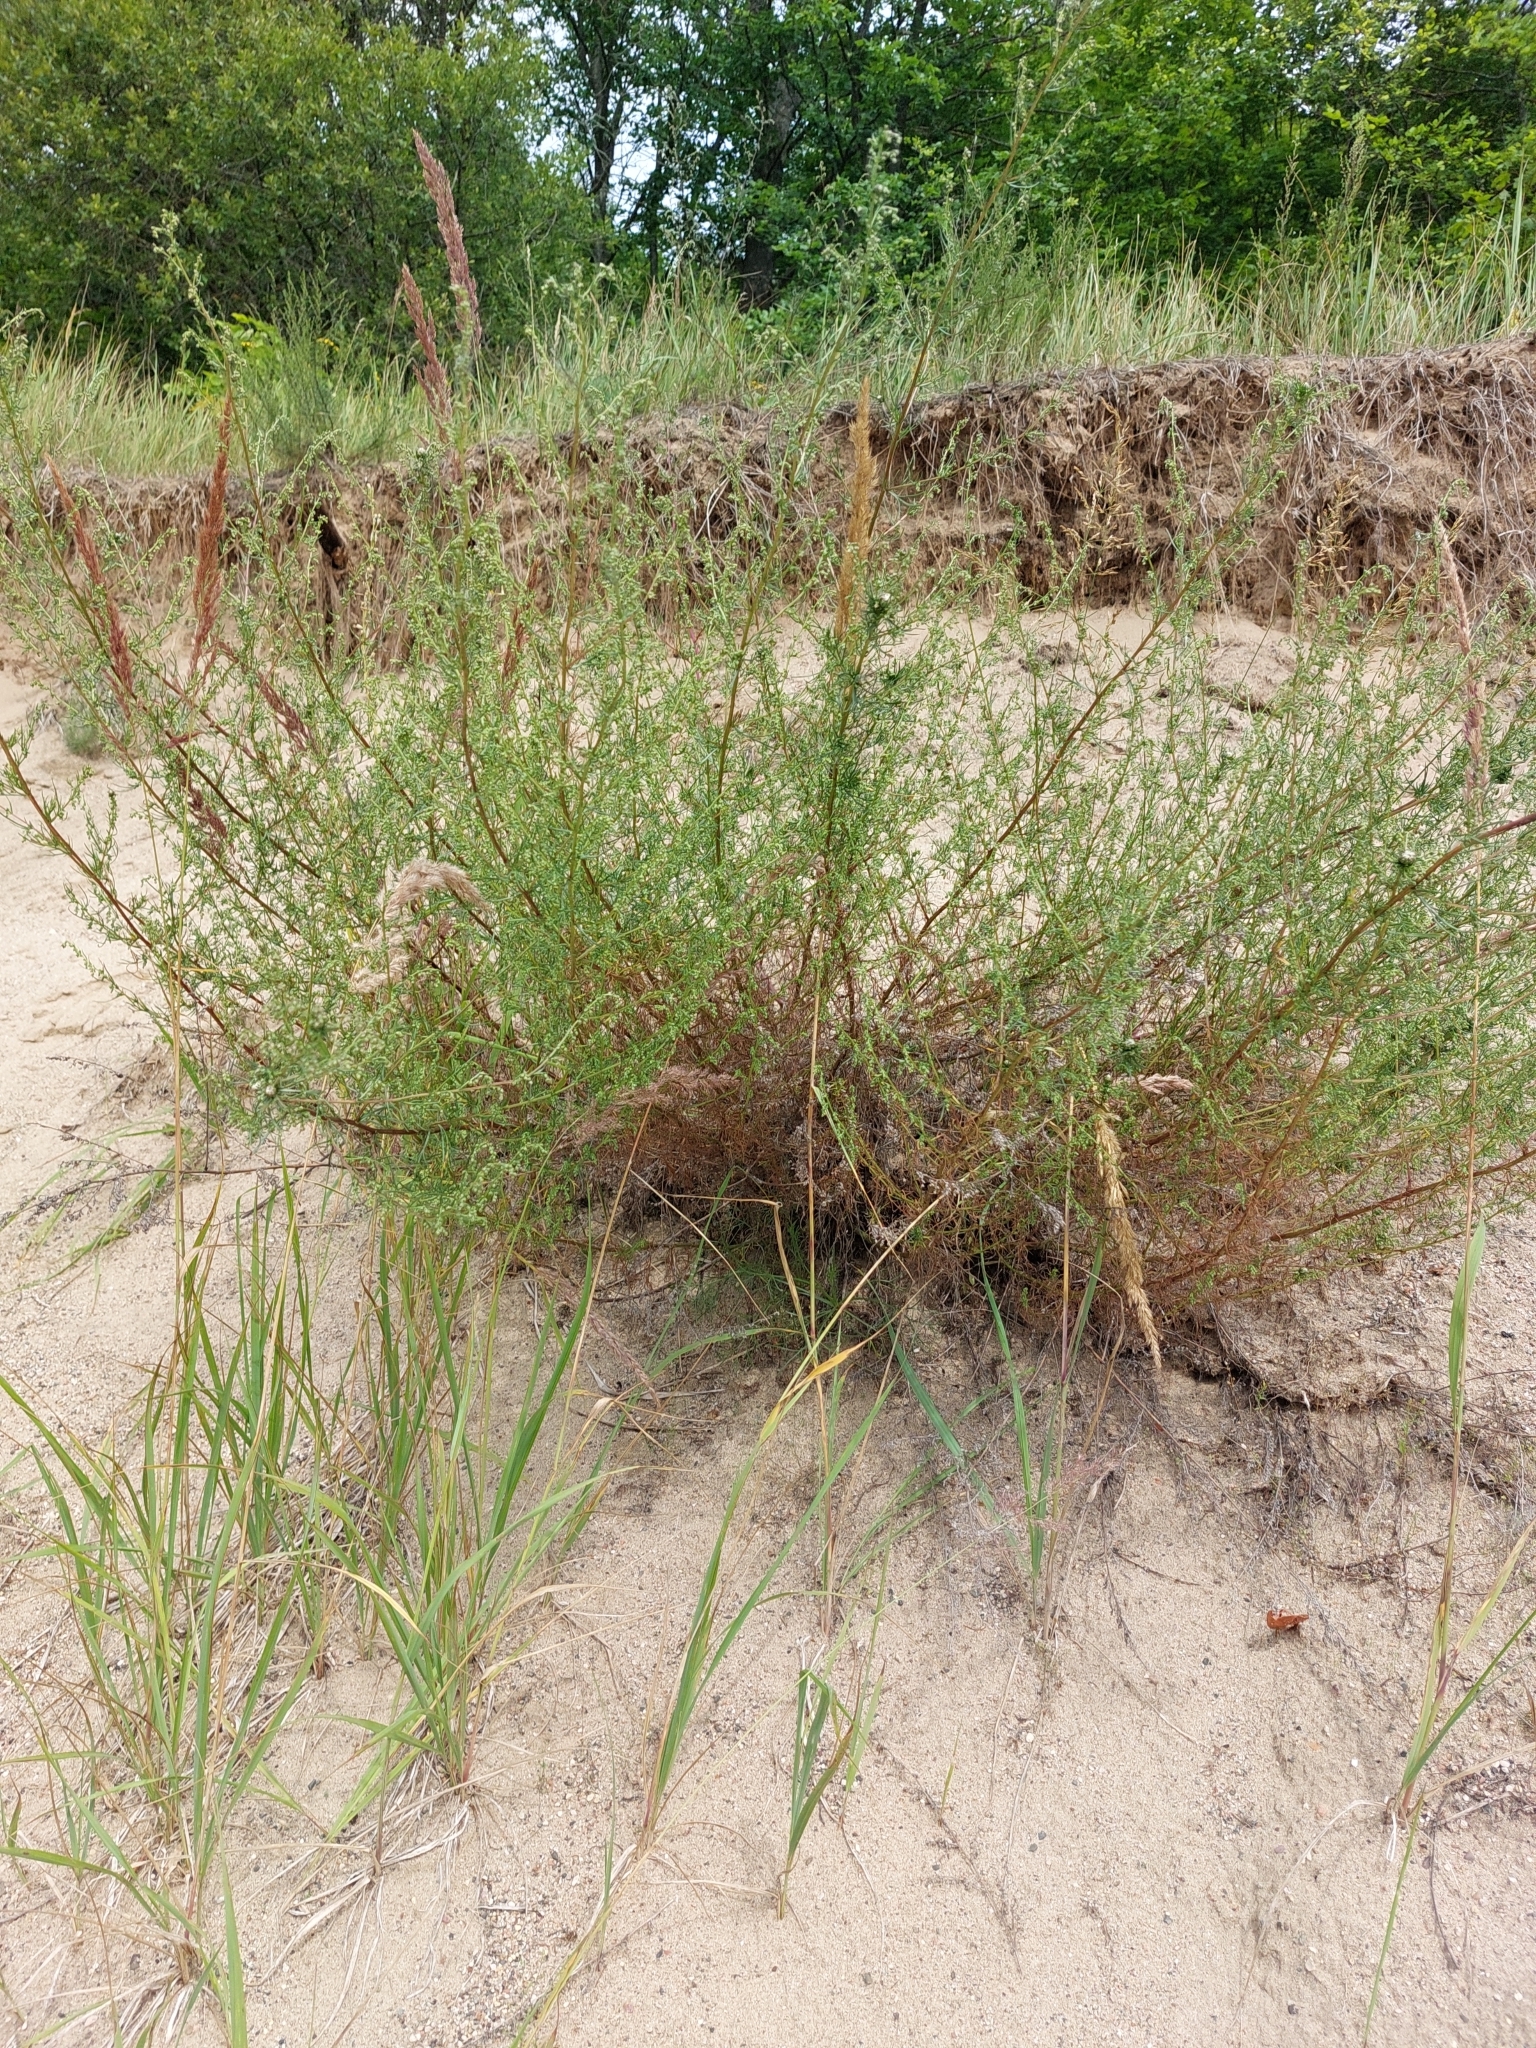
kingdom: Plantae
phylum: Tracheophyta
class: Magnoliopsida
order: Asterales
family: Asteraceae
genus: Artemisia
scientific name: Artemisia campestris
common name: Field wormwood
